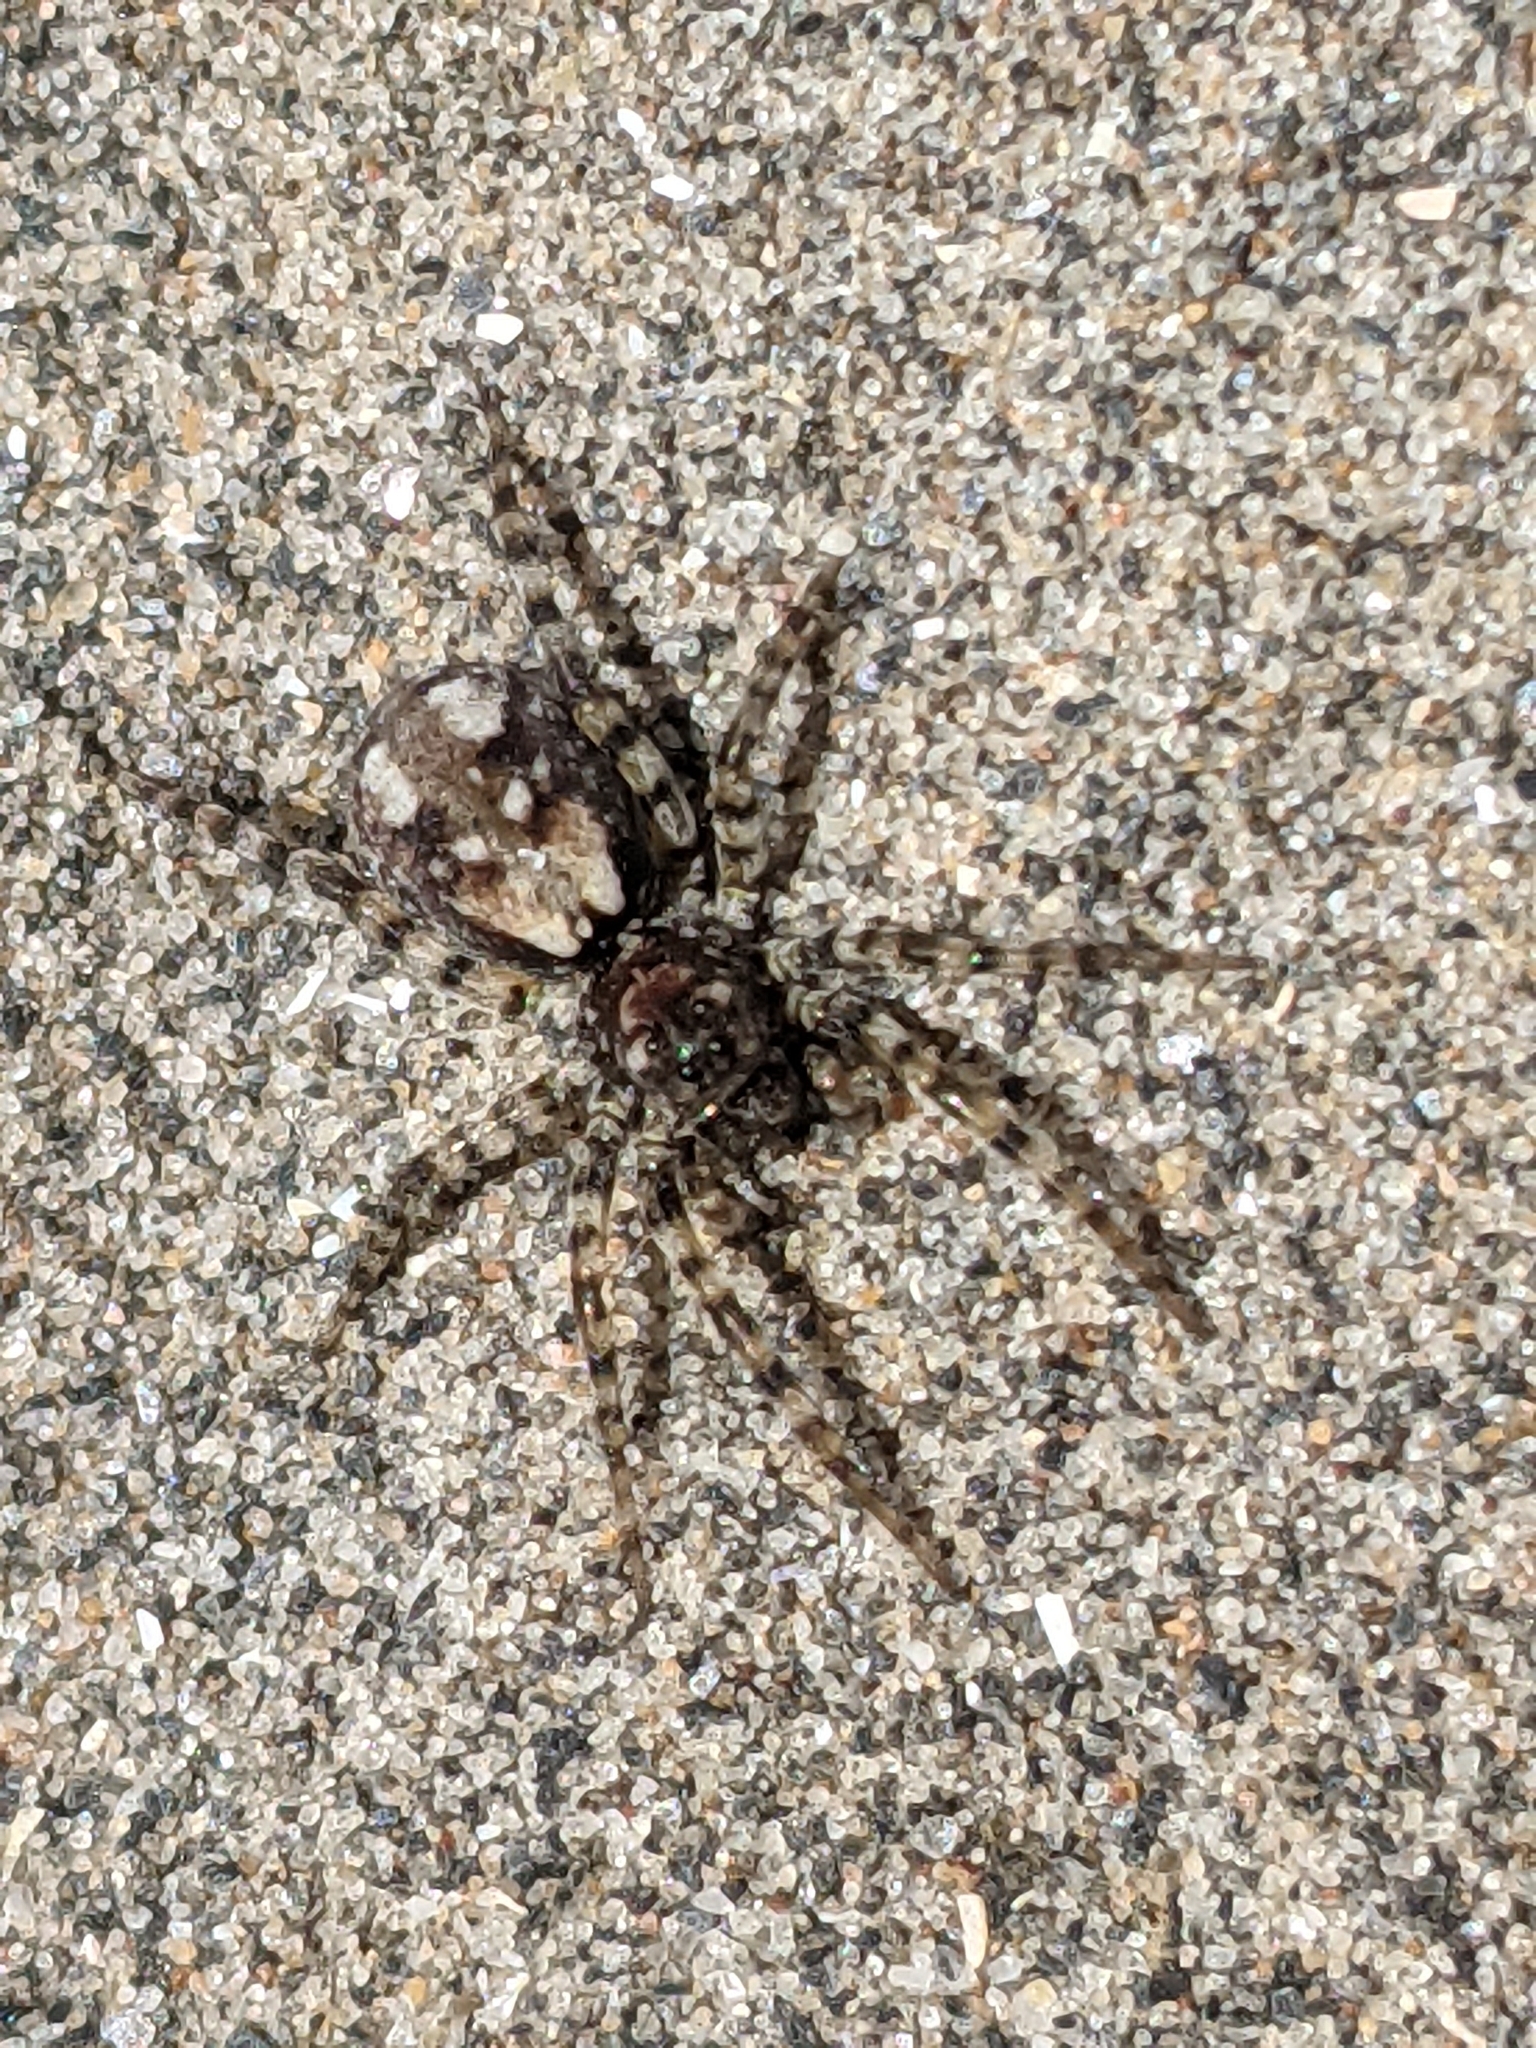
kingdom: Animalia
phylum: Arthropoda
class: Arachnida
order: Araneae
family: Lycosidae
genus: Arctosa
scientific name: Arctosa perita
